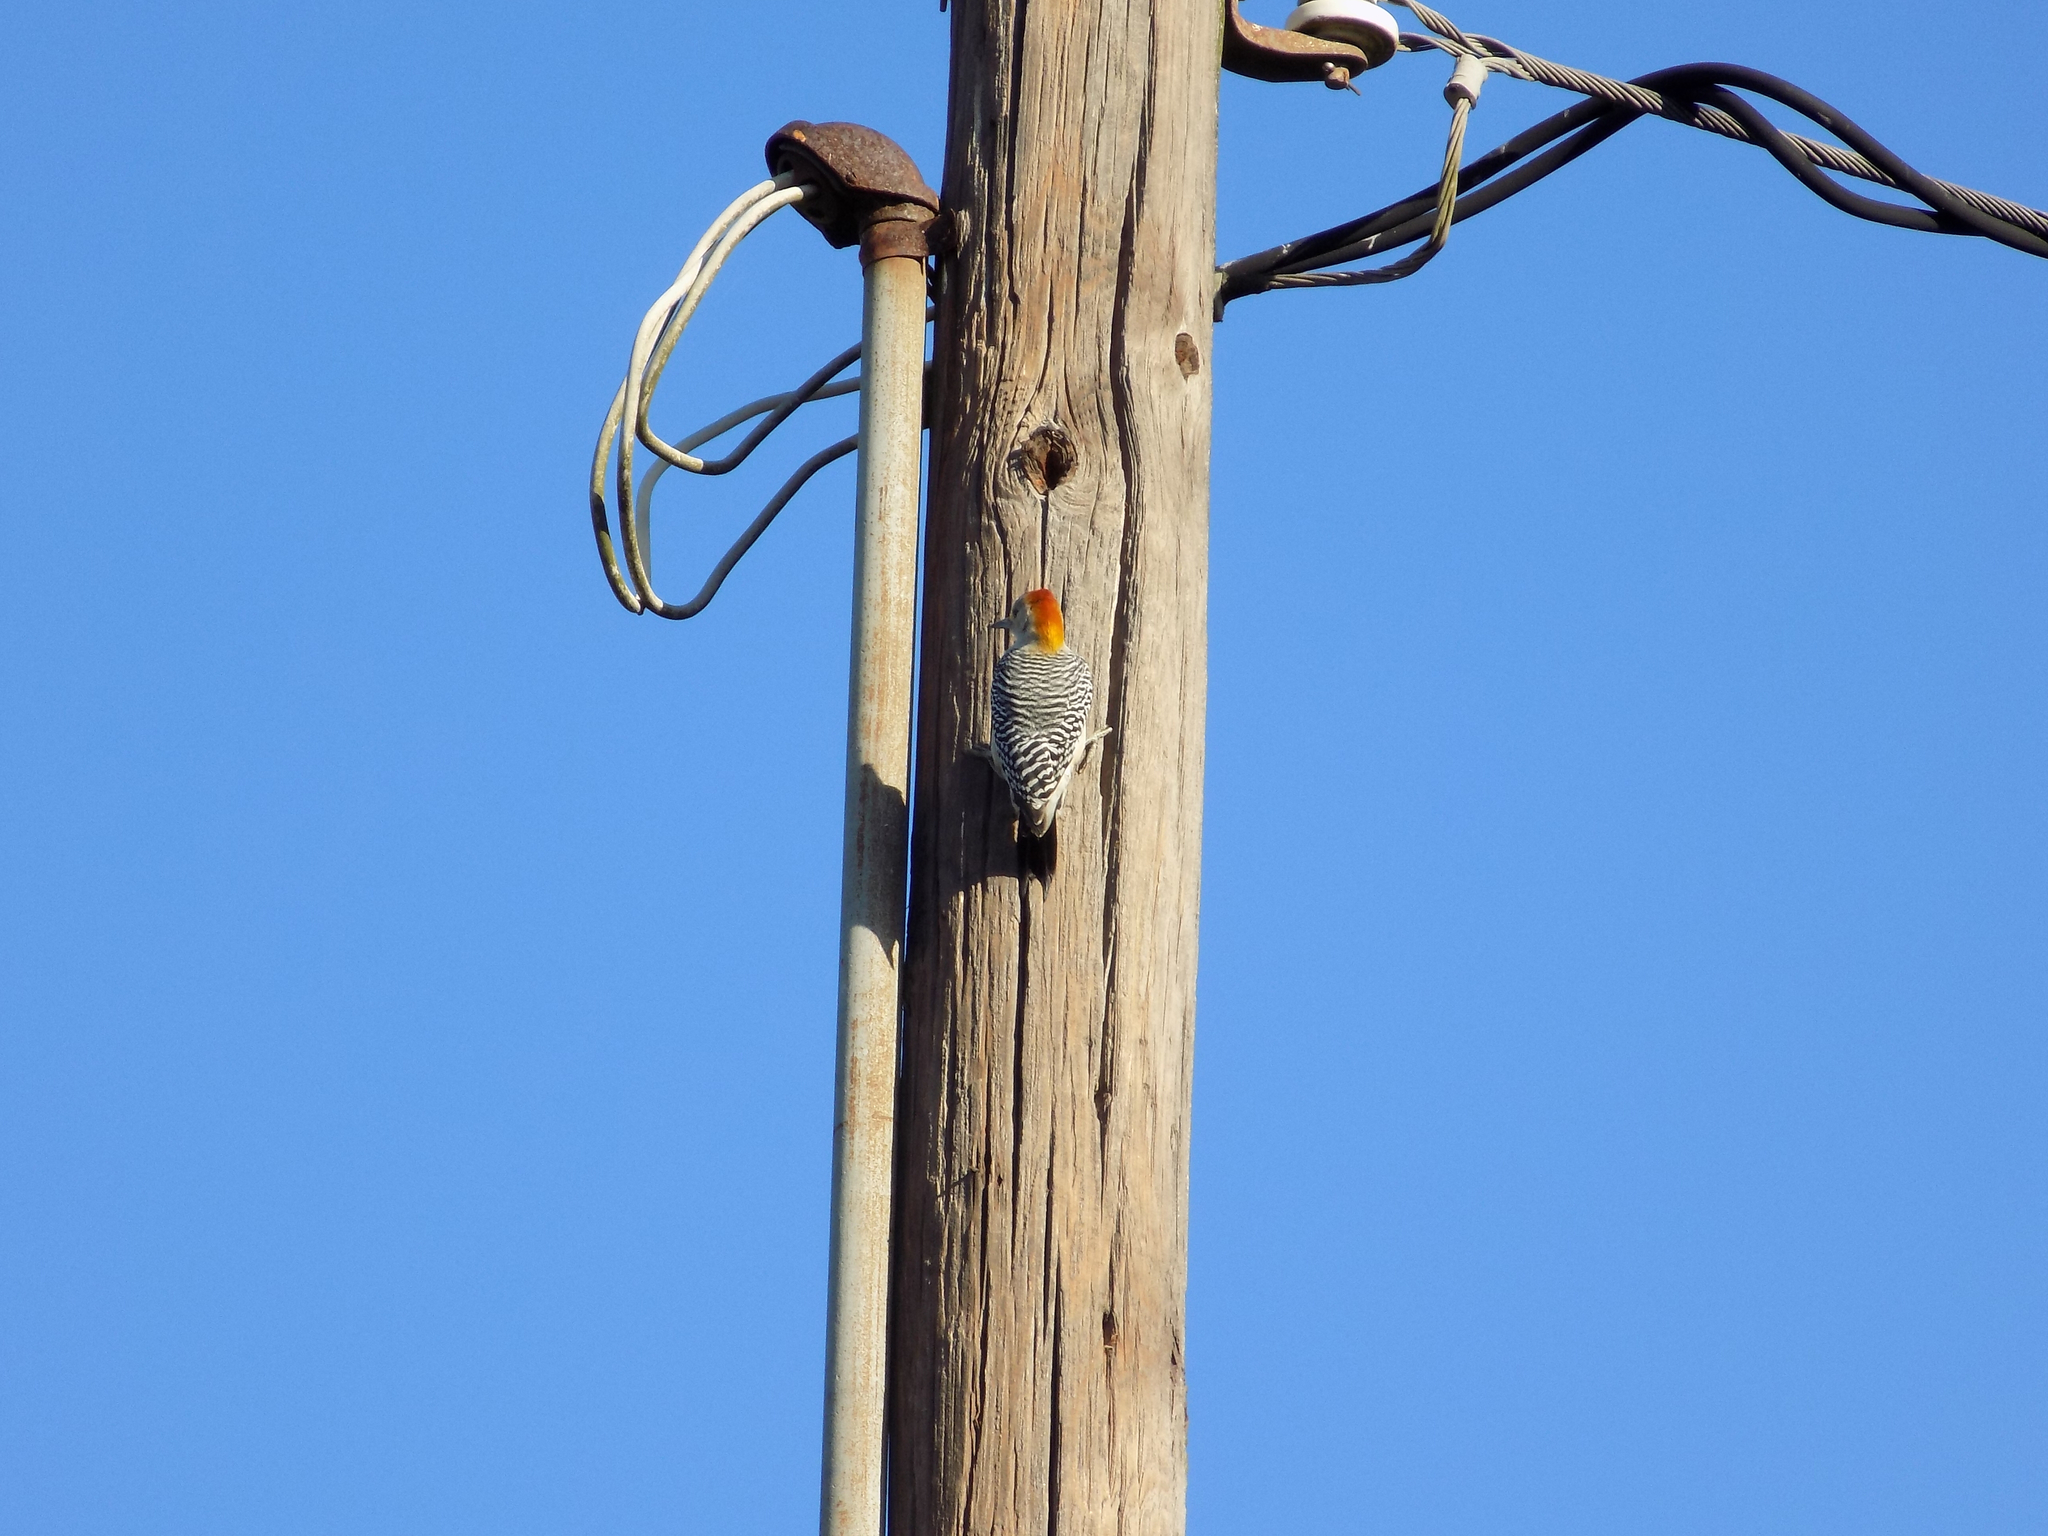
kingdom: Animalia
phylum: Chordata
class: Aves
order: Piciformes
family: Picidae
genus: Melanerpes
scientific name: Melanerpes aurifrons
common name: Golden-fronted woodpecker
